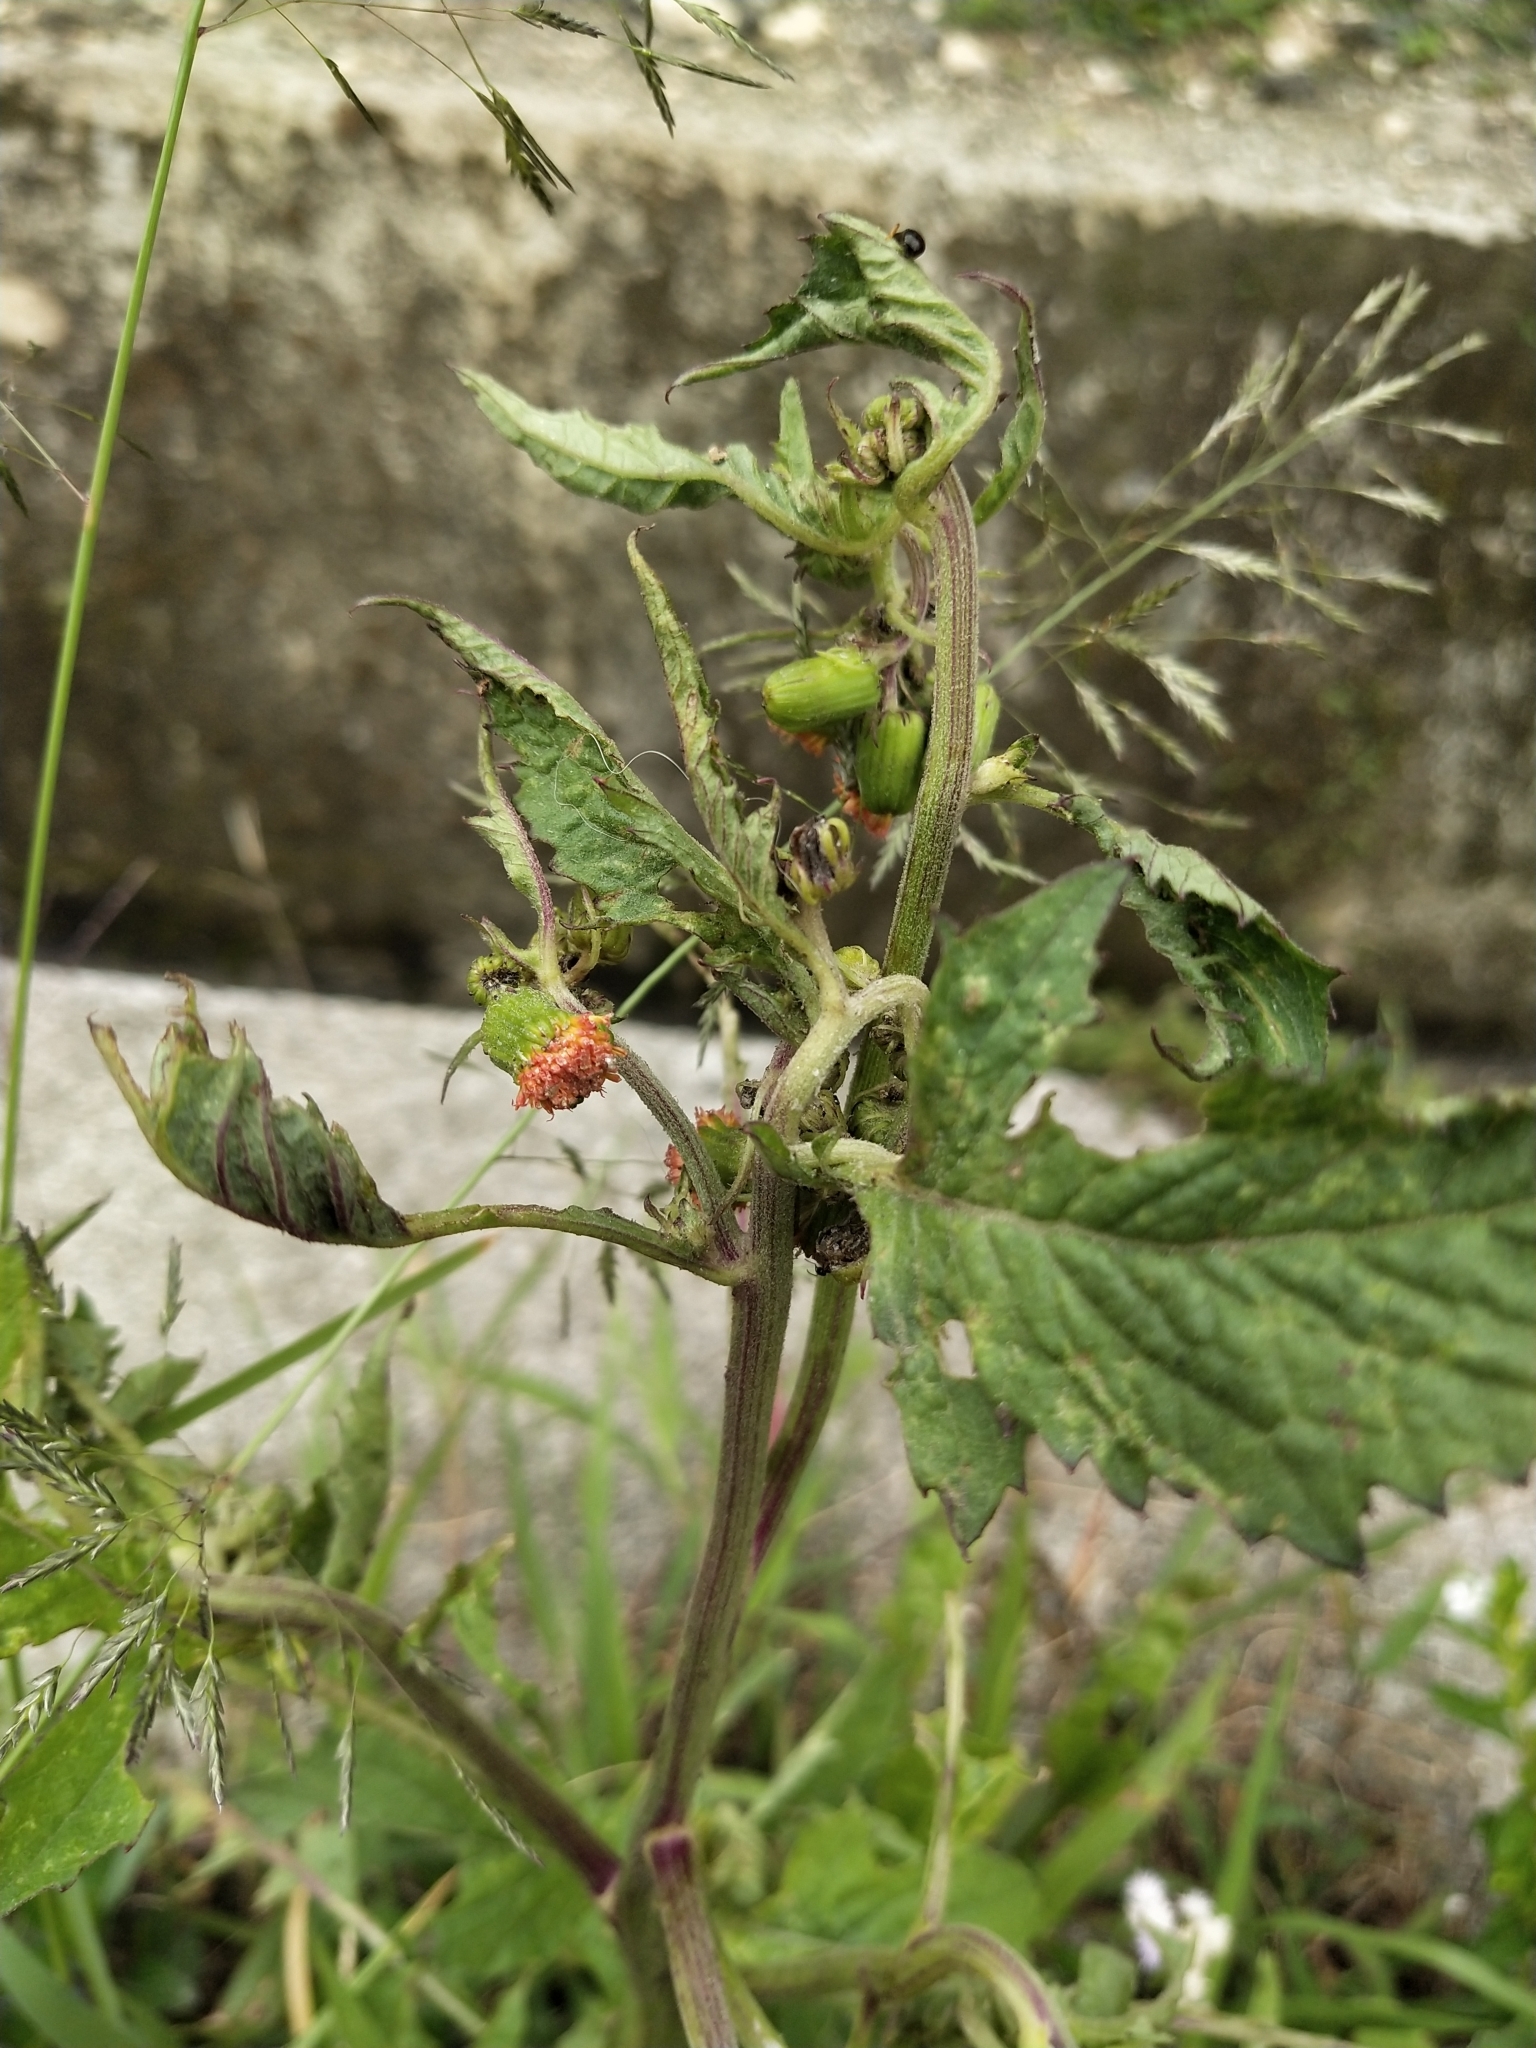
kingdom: Plantae
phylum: Tracheophyta
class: Magnoliopsida
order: Asterales
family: Asteraceae
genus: Crassocephalum
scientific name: Crassocephalum crepidioides
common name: Redflower ragleaf
